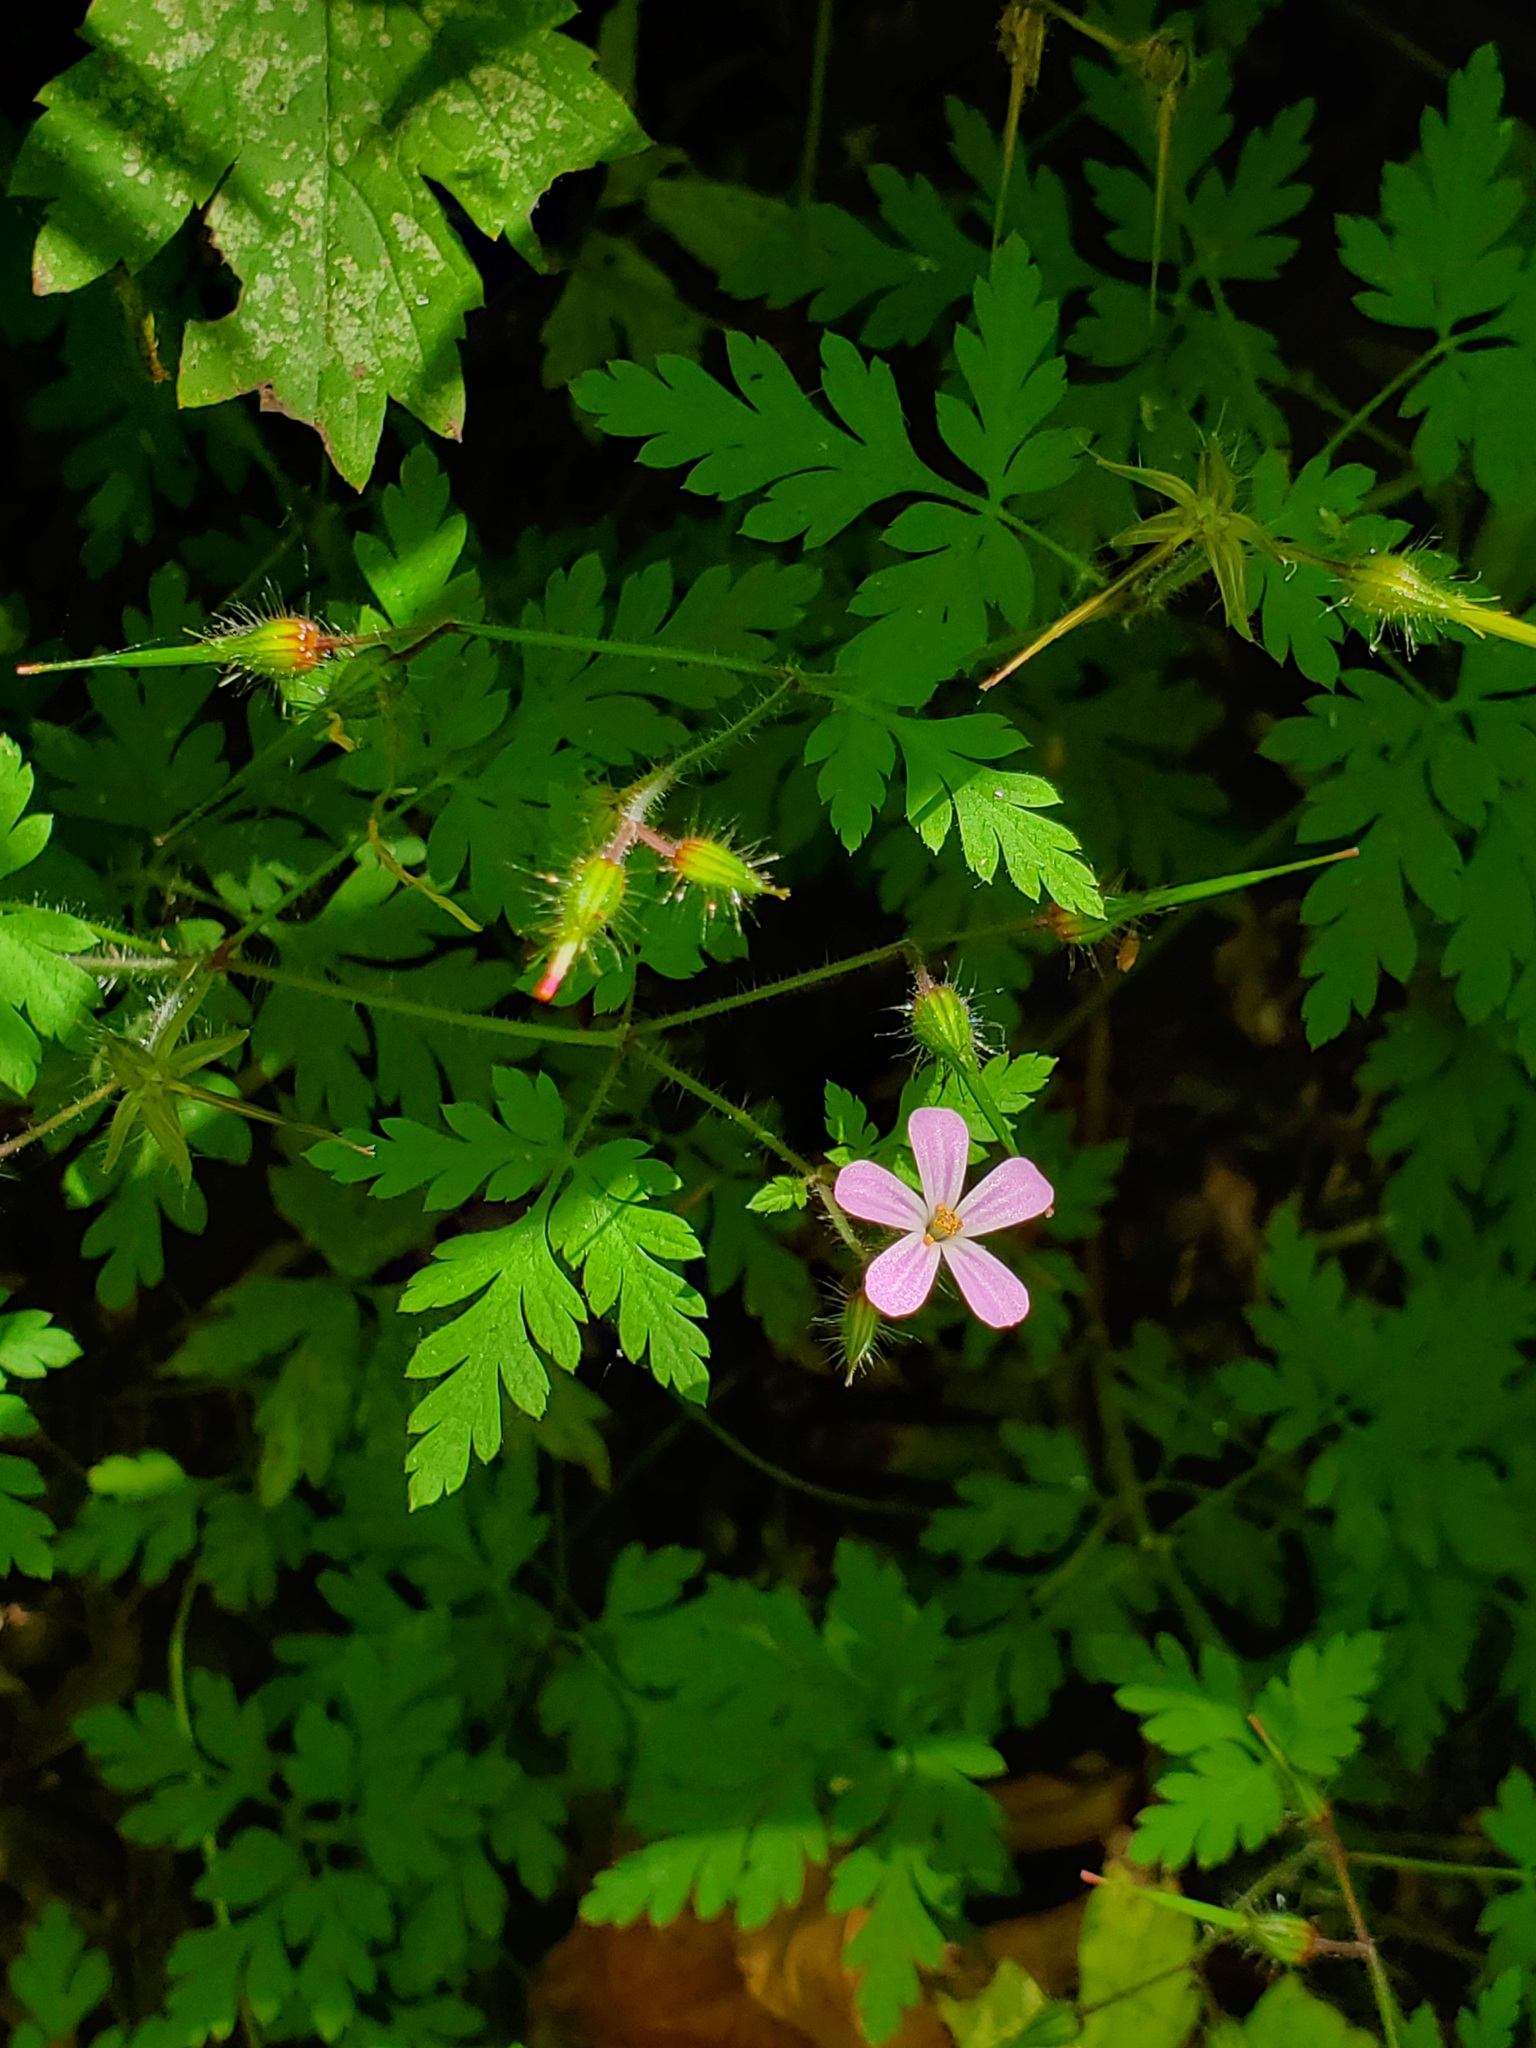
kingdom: Plantae
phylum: Tracheophyta
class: Magnoliopsida
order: Geraniales
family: Geraniaceae
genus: Geranium
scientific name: Geranium robertianum
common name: Herb-robert
